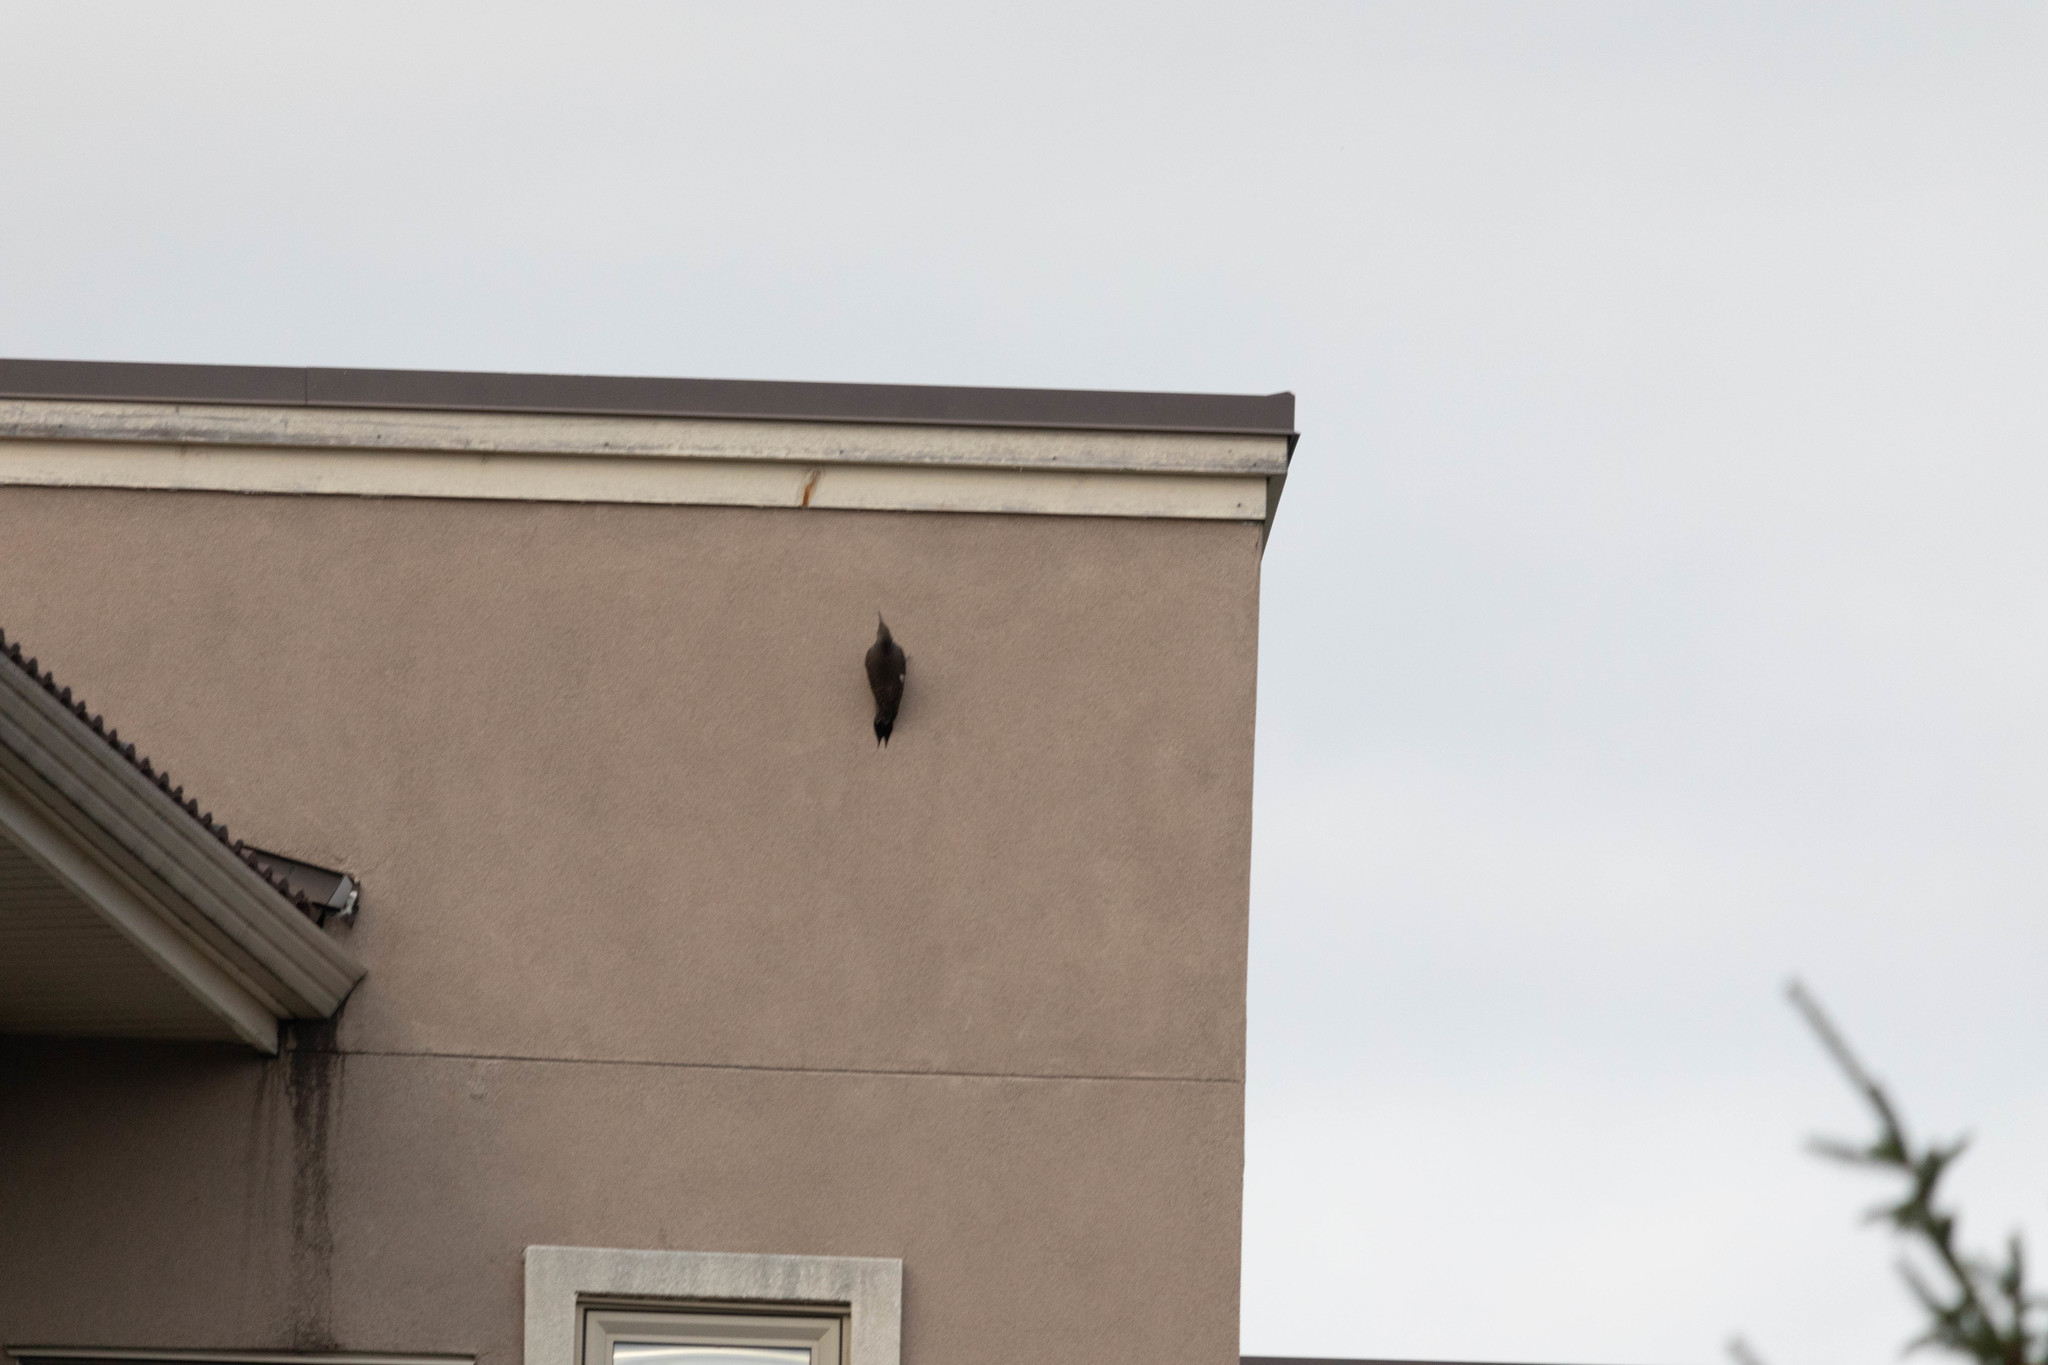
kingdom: Animalia
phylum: Chordata
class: Aves
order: Piciformes
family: Picidae
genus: Colaptes
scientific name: Colaptes auratus
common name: Northern flicker
